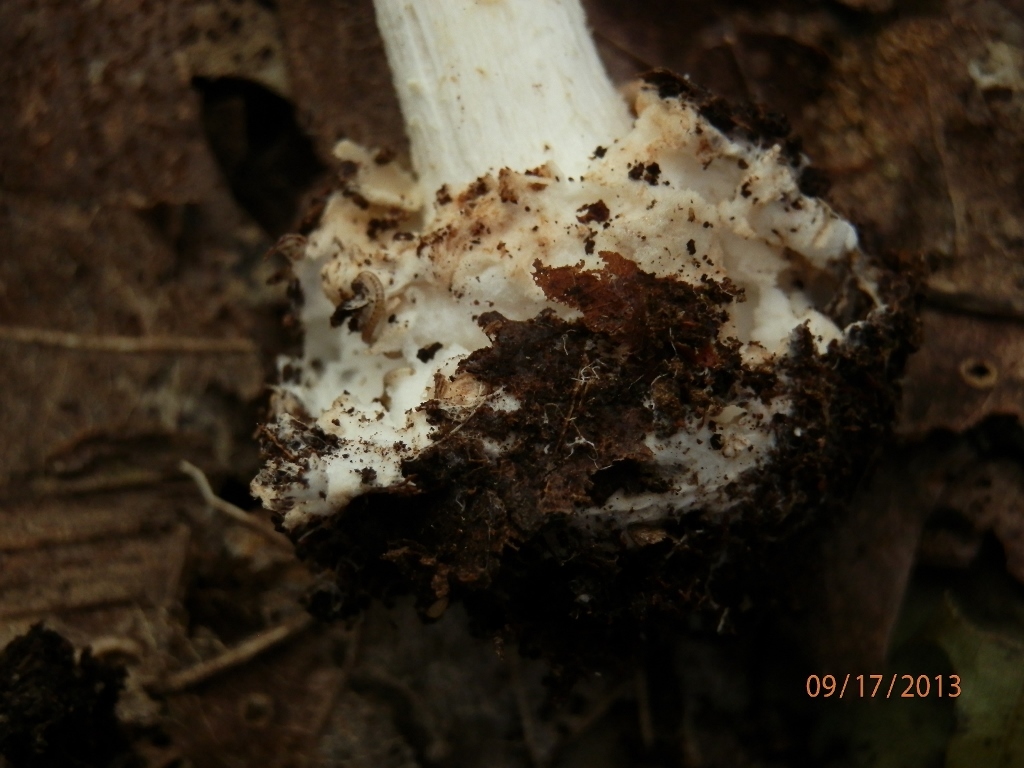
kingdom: Fungi
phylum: Basidiomycota
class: Agaricomycetes
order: Agaricales
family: Amanitaceae
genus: Amanita
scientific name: Amanita citrina
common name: False death-cap
